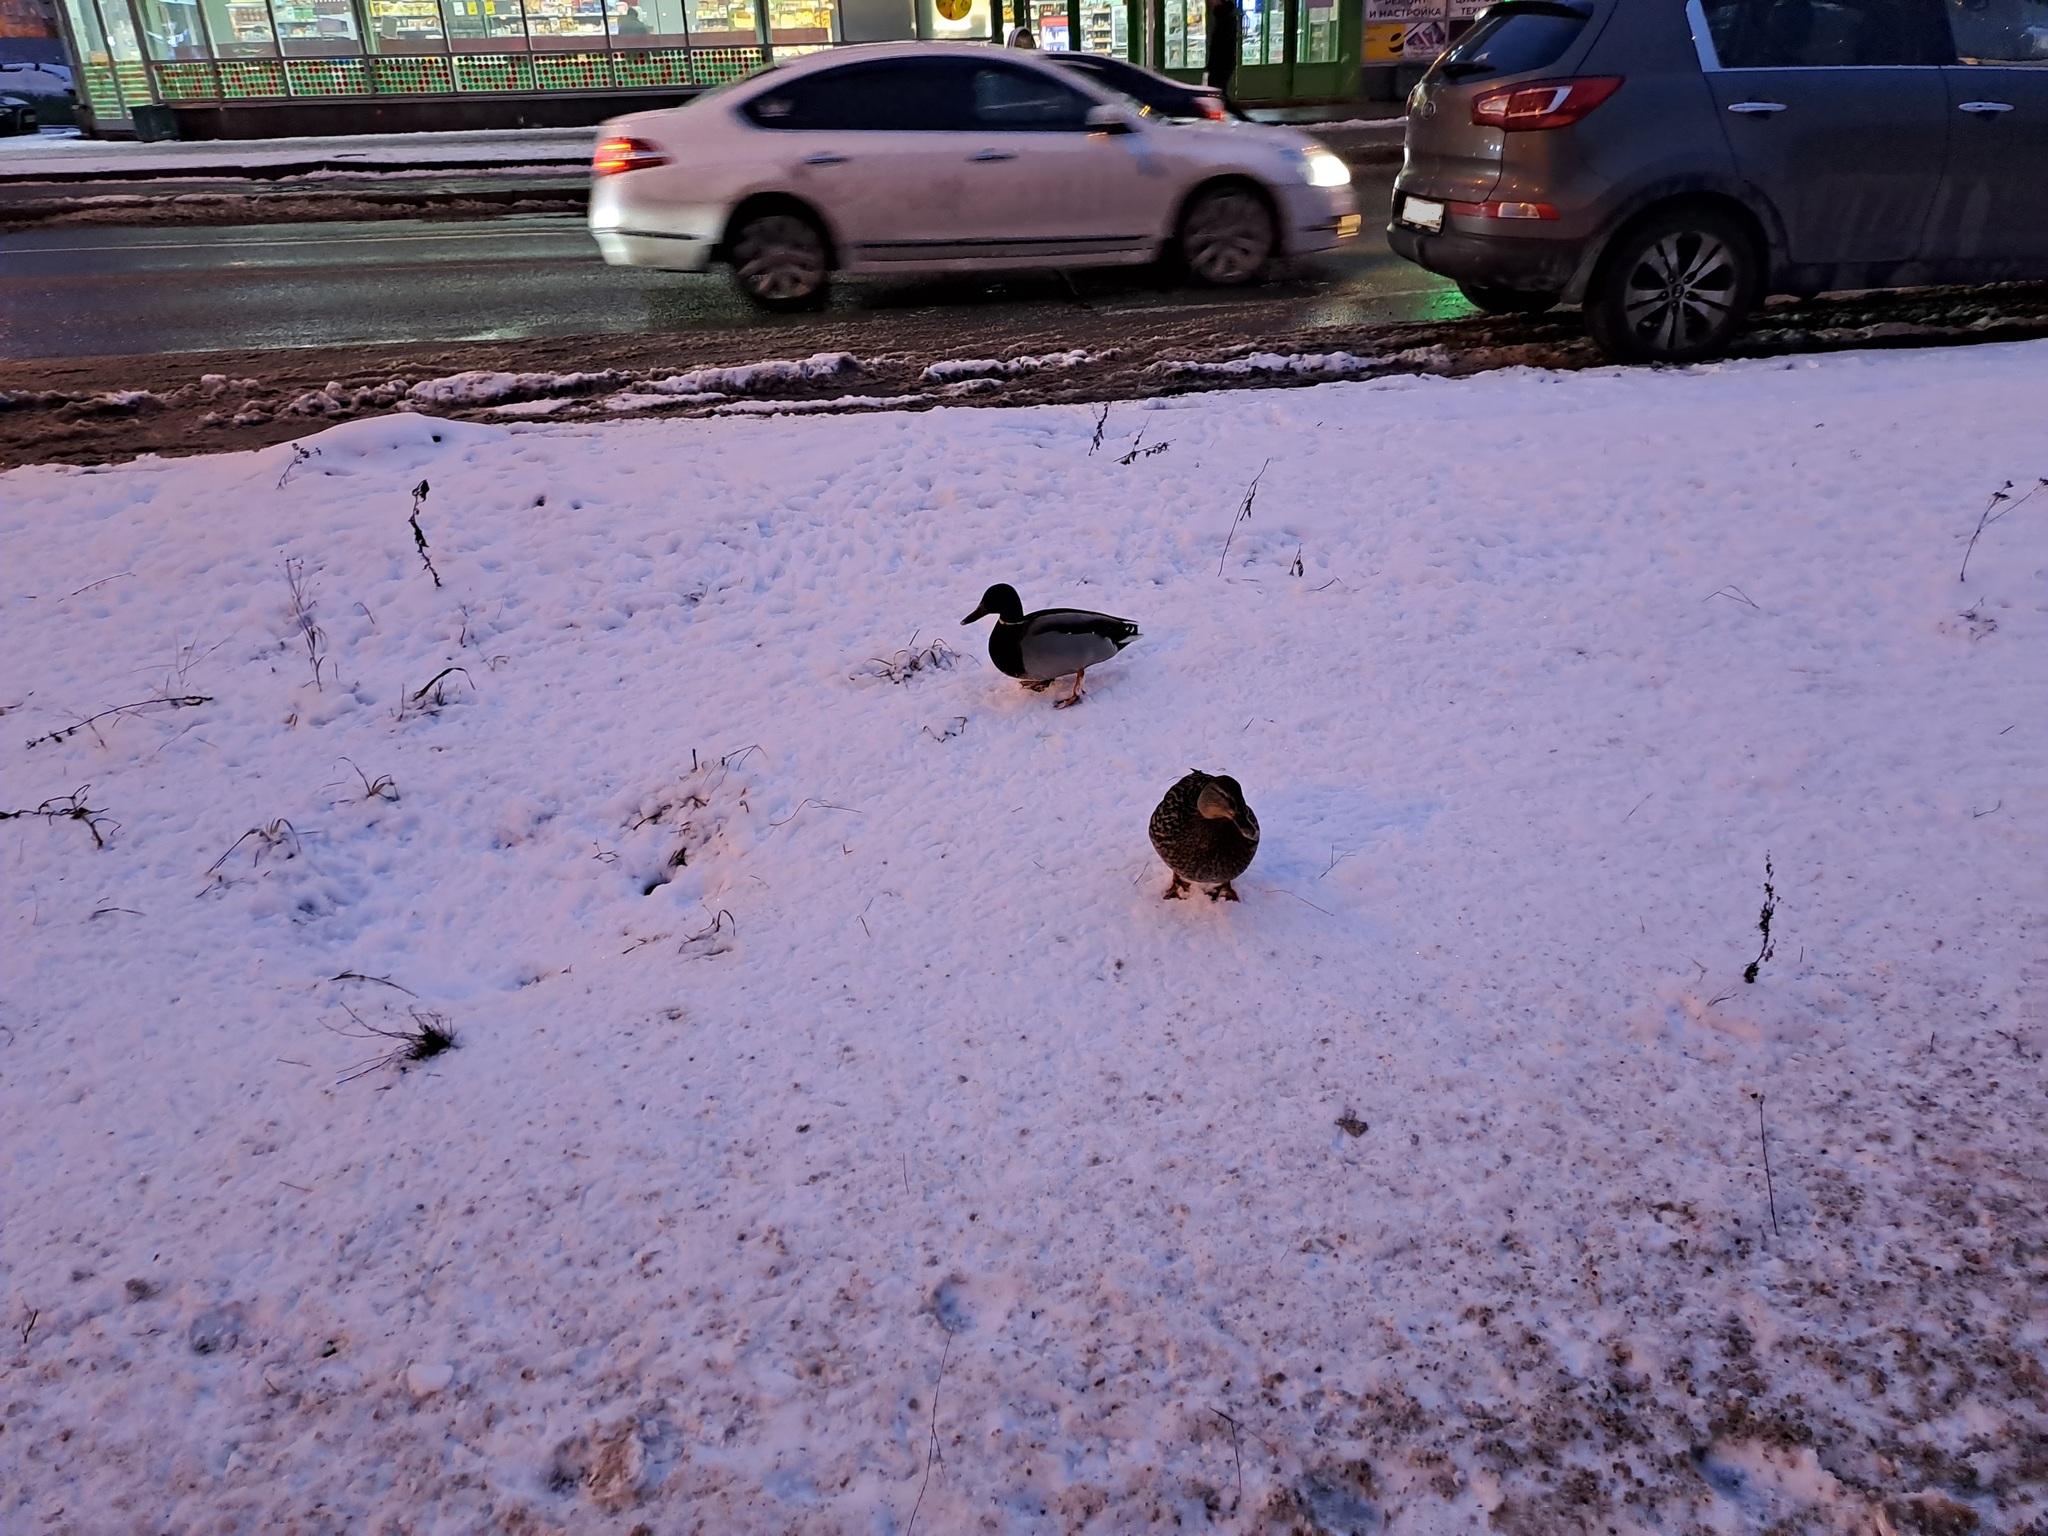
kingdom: Animalia
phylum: Chordata
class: Aves
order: Anseriformes
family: Anatidae
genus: Anas
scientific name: Anas platyrhynchos
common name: Mallard
